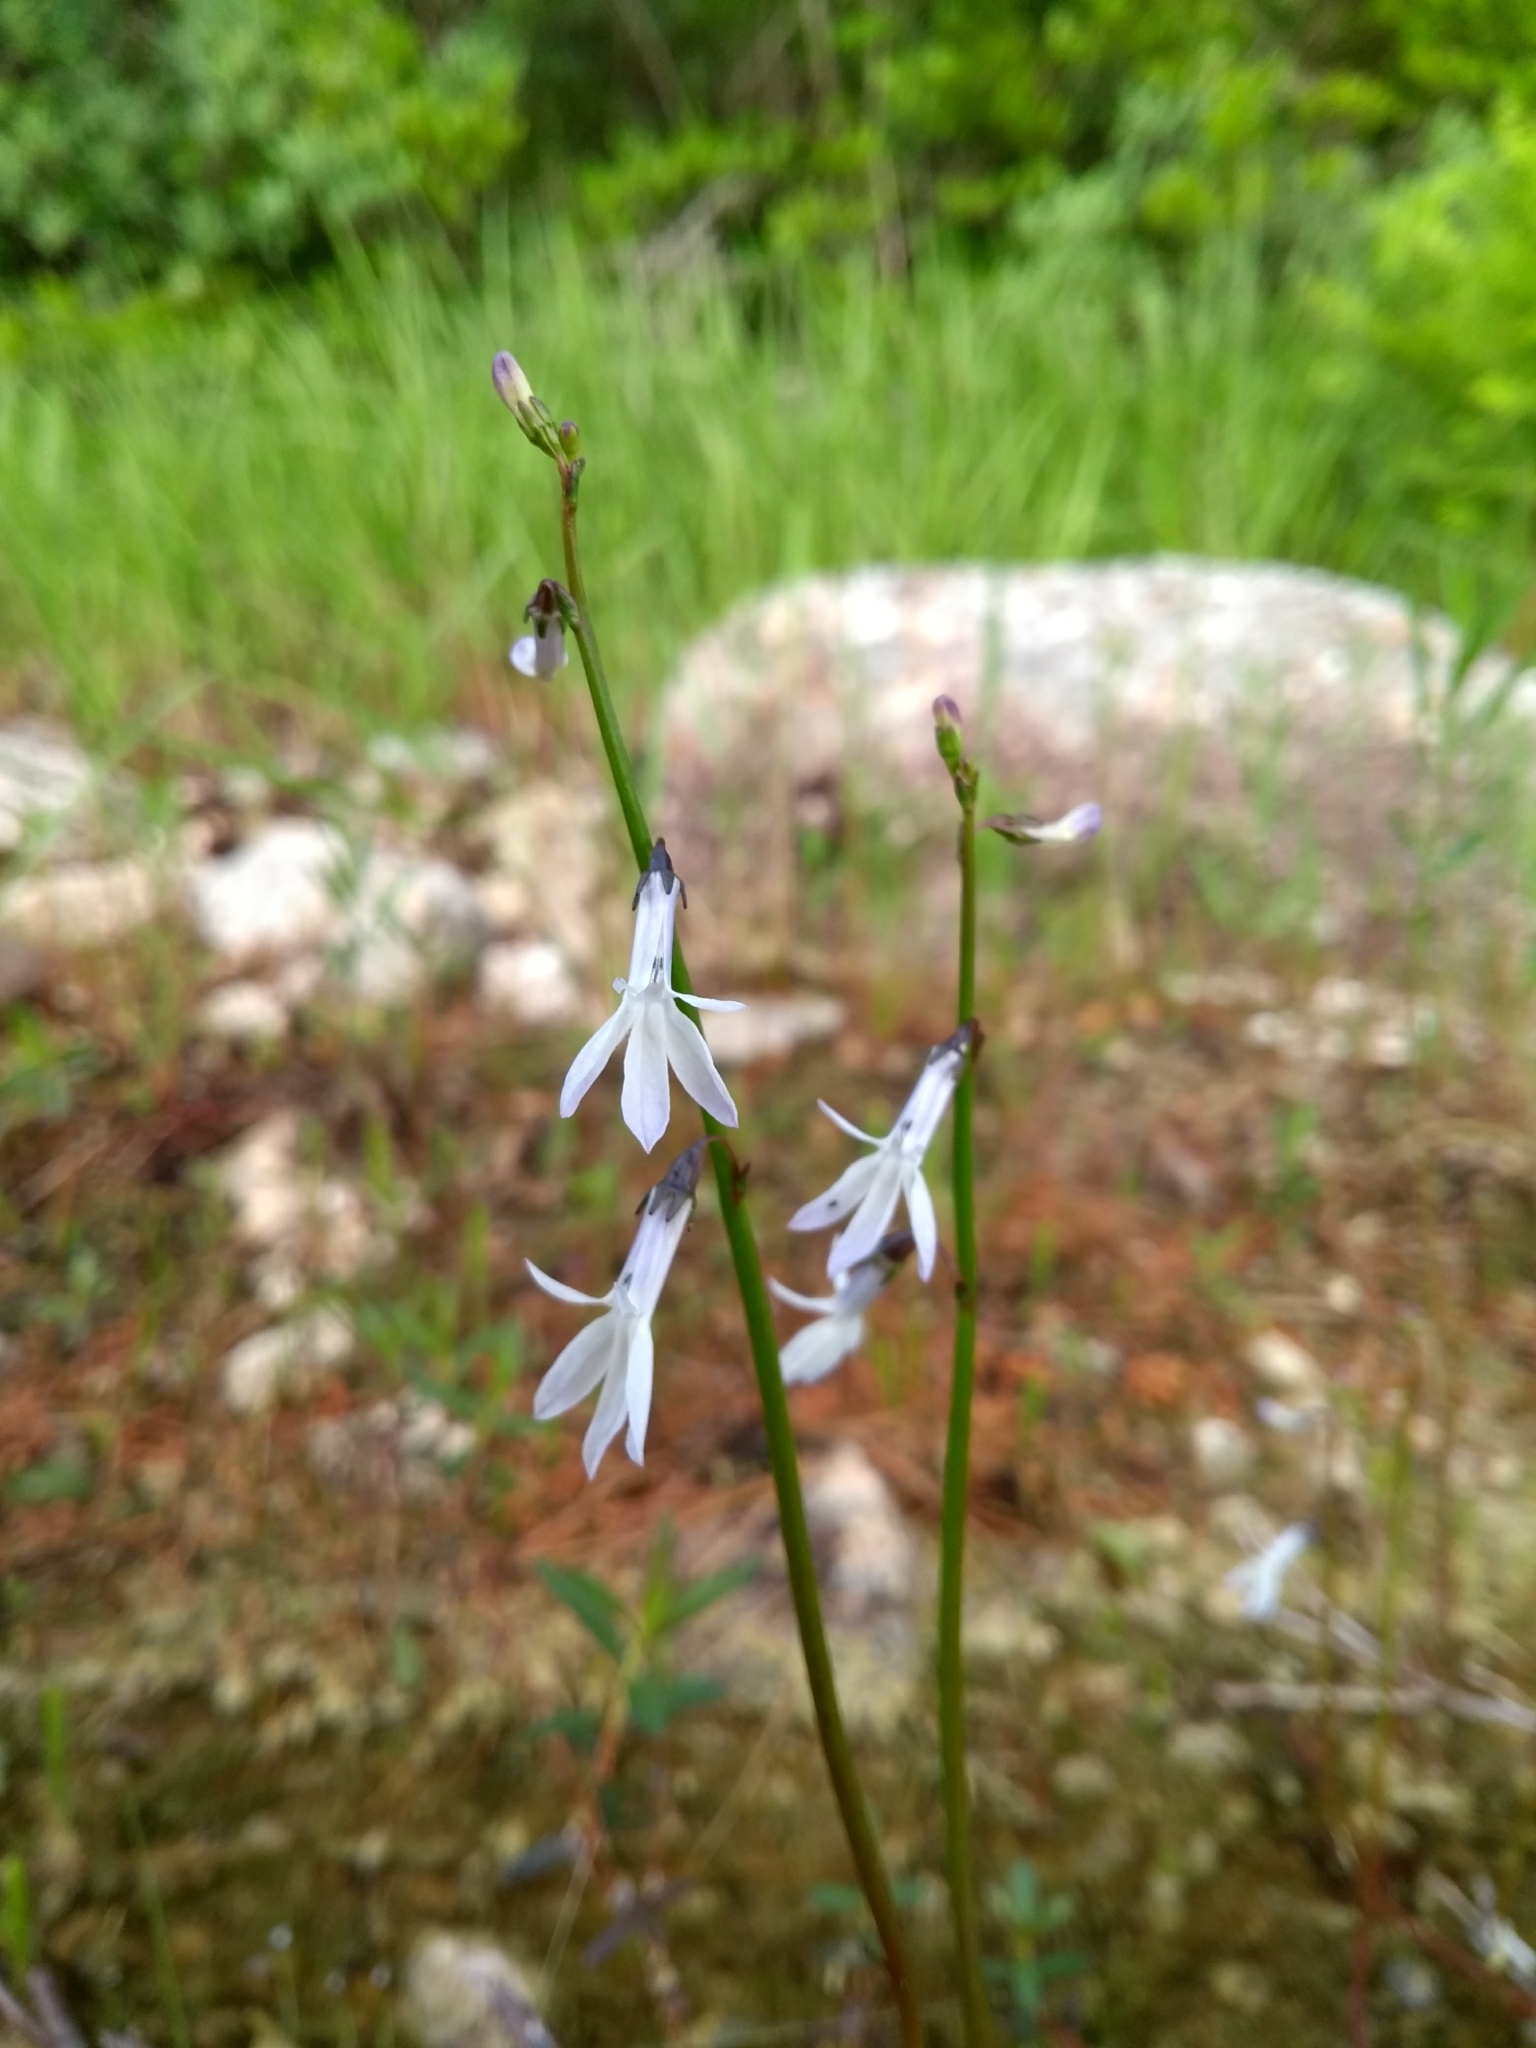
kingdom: Plantae
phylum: Tracheophyta
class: Magnoliopsida
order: Asterales
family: Campanulaceae
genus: Lobelia
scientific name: Lobelia dortmanna
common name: Water lobelia
